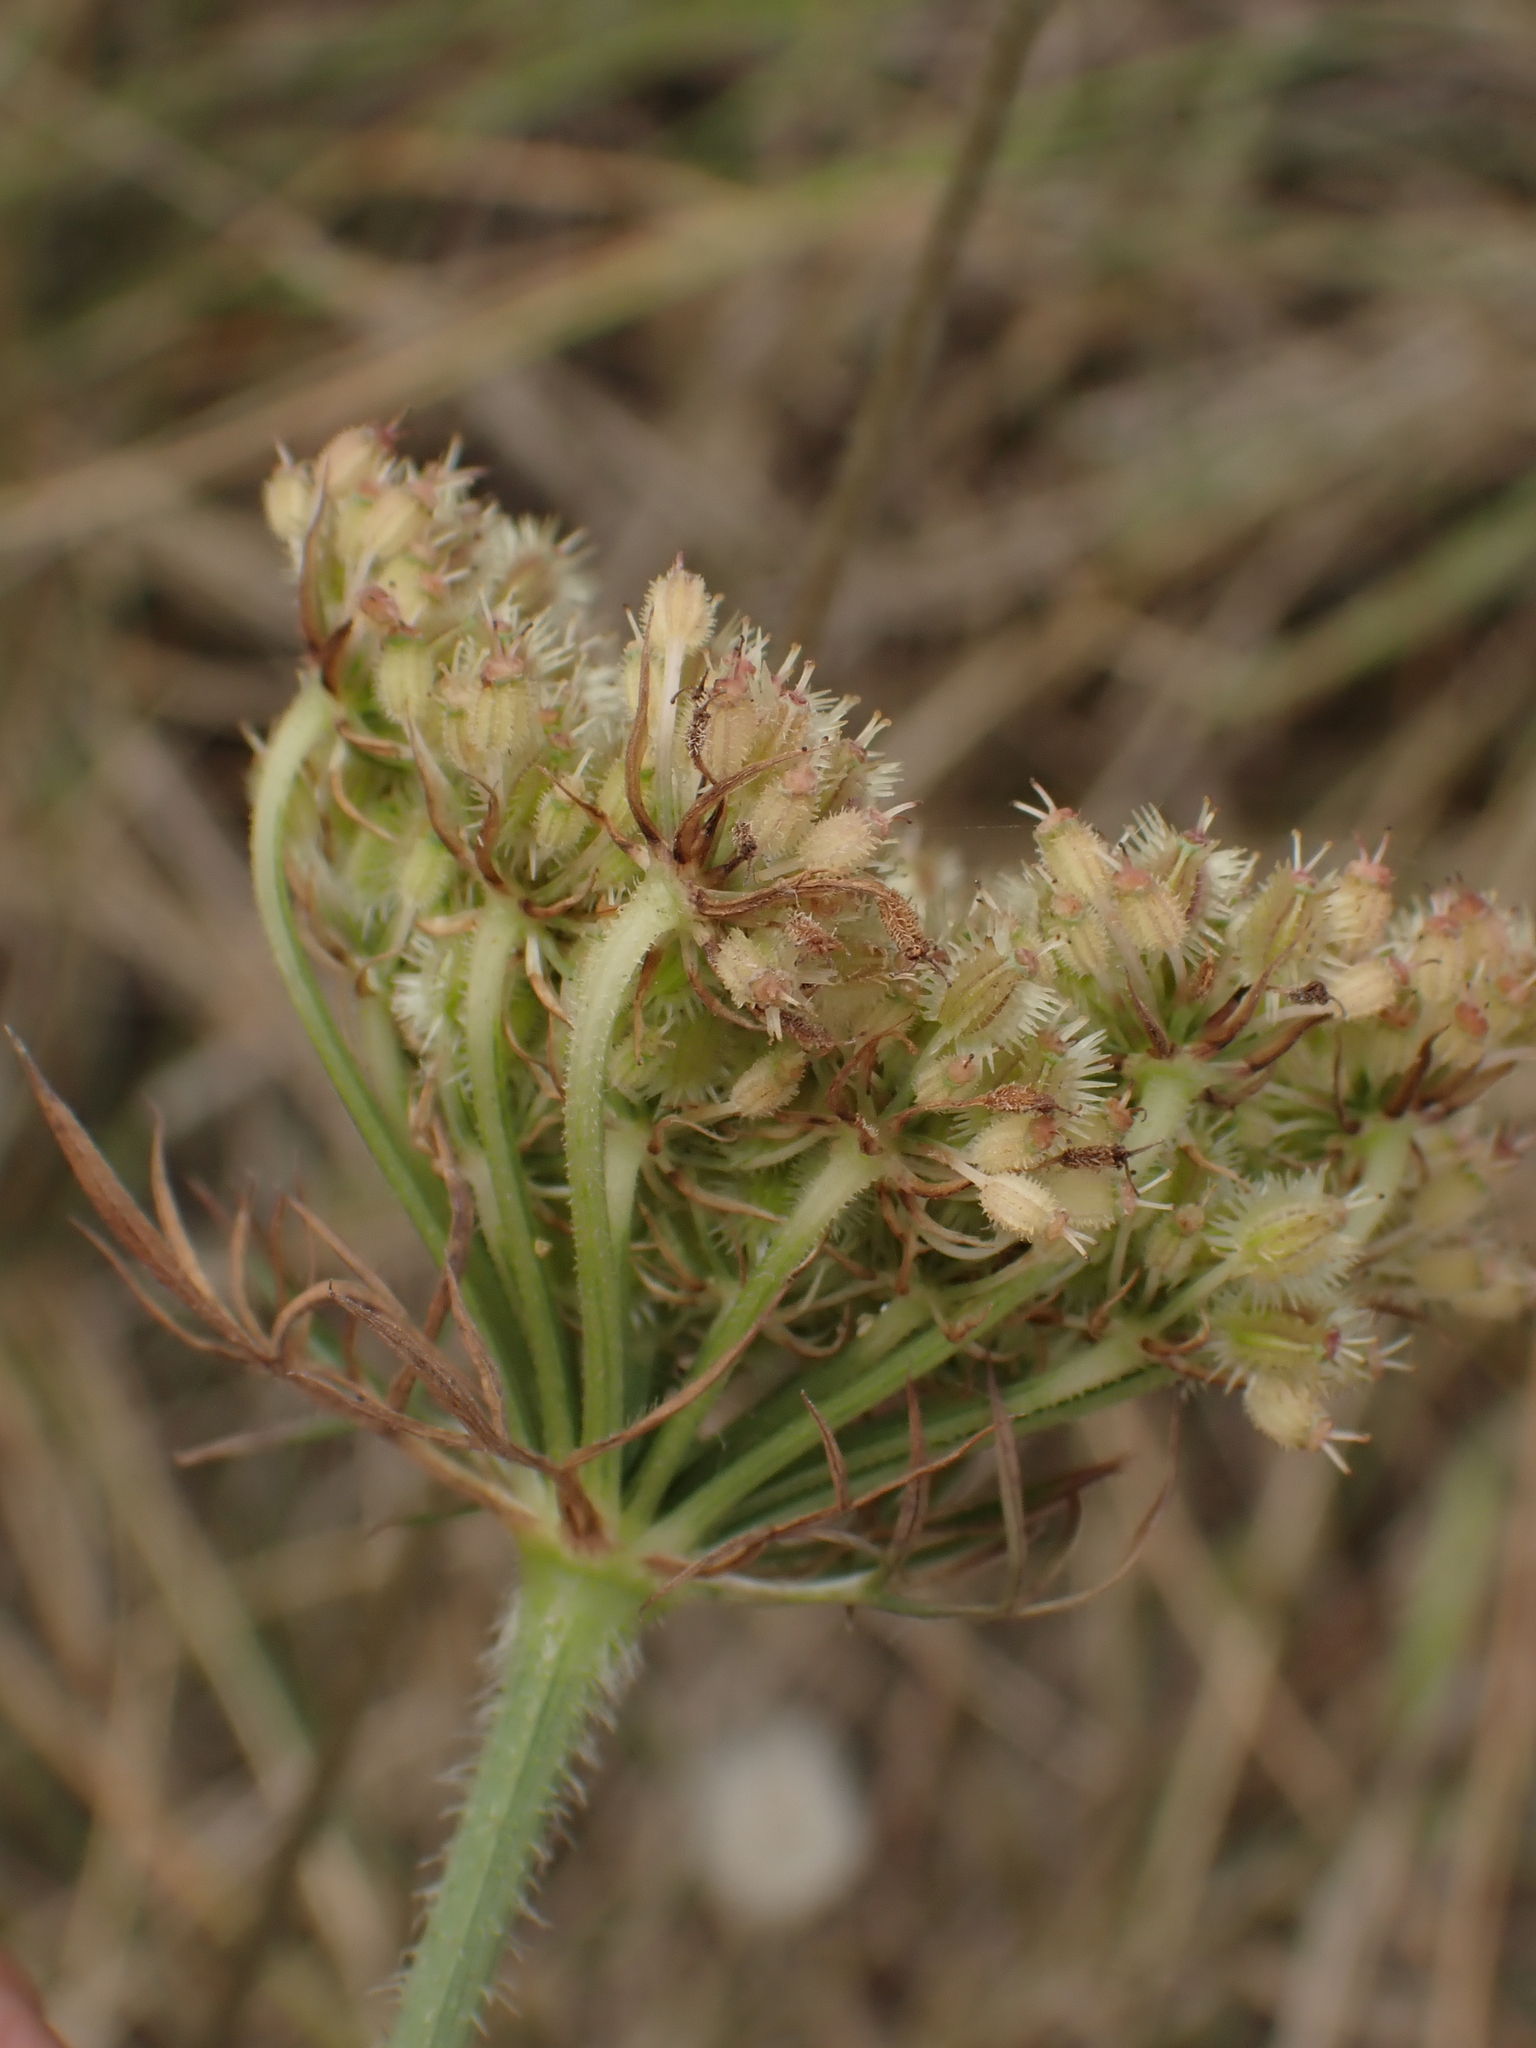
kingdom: Plantae
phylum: Tracheophyta
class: Magnoliopsida
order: Apiales
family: Apiaceae
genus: Daucus
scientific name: Daucus carota
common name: Wild carrot
